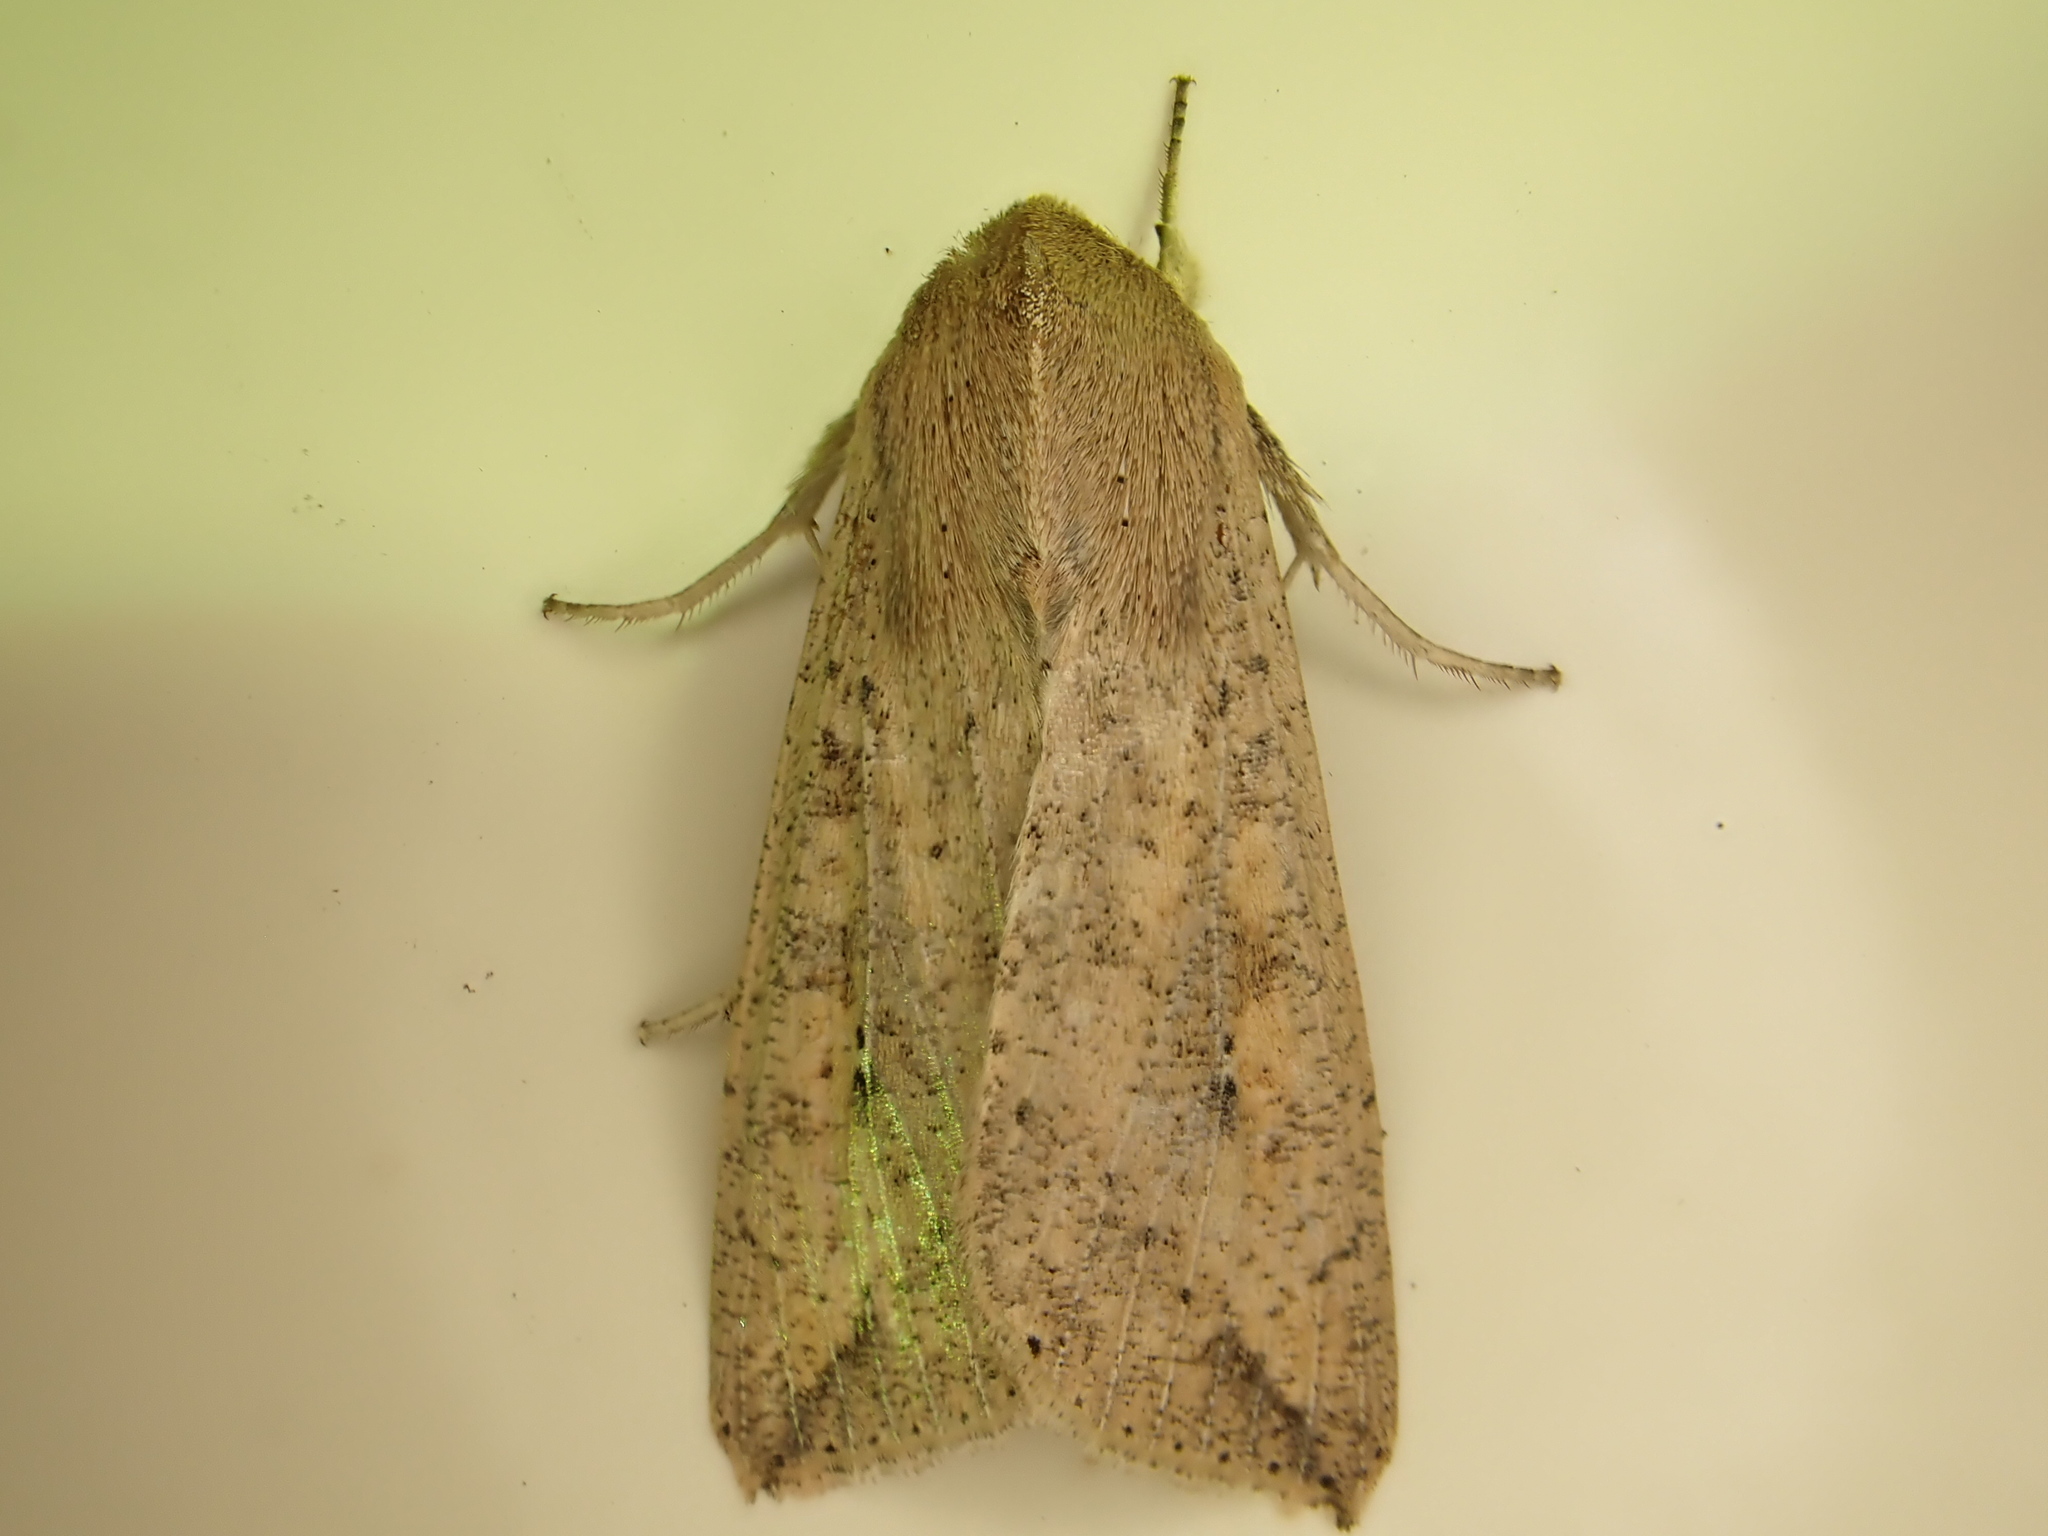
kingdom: Animalia
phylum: Arthropoda
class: Insecta
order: Lepidoptera
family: Noctuidae
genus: Mythimna
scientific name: Mythimna separata
